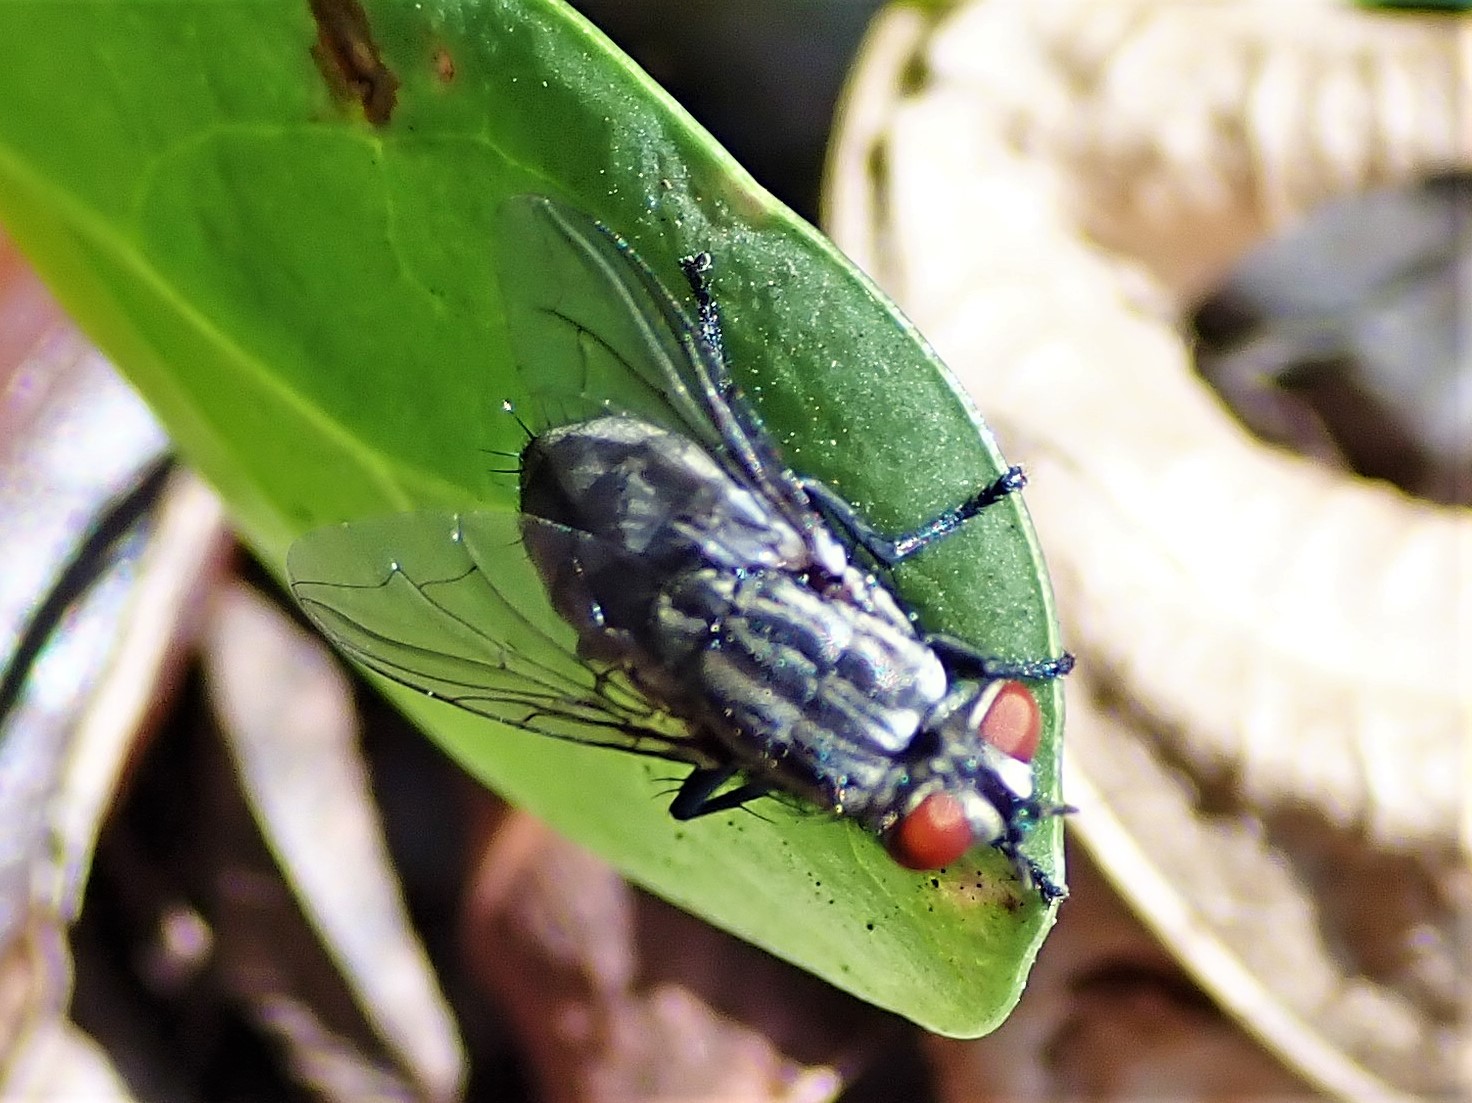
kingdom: Animalia
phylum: Arthropoda
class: Insecta
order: Diptera
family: Sarcophagidae
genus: Sarcophaga
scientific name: Sarcophaga crassipalpis
